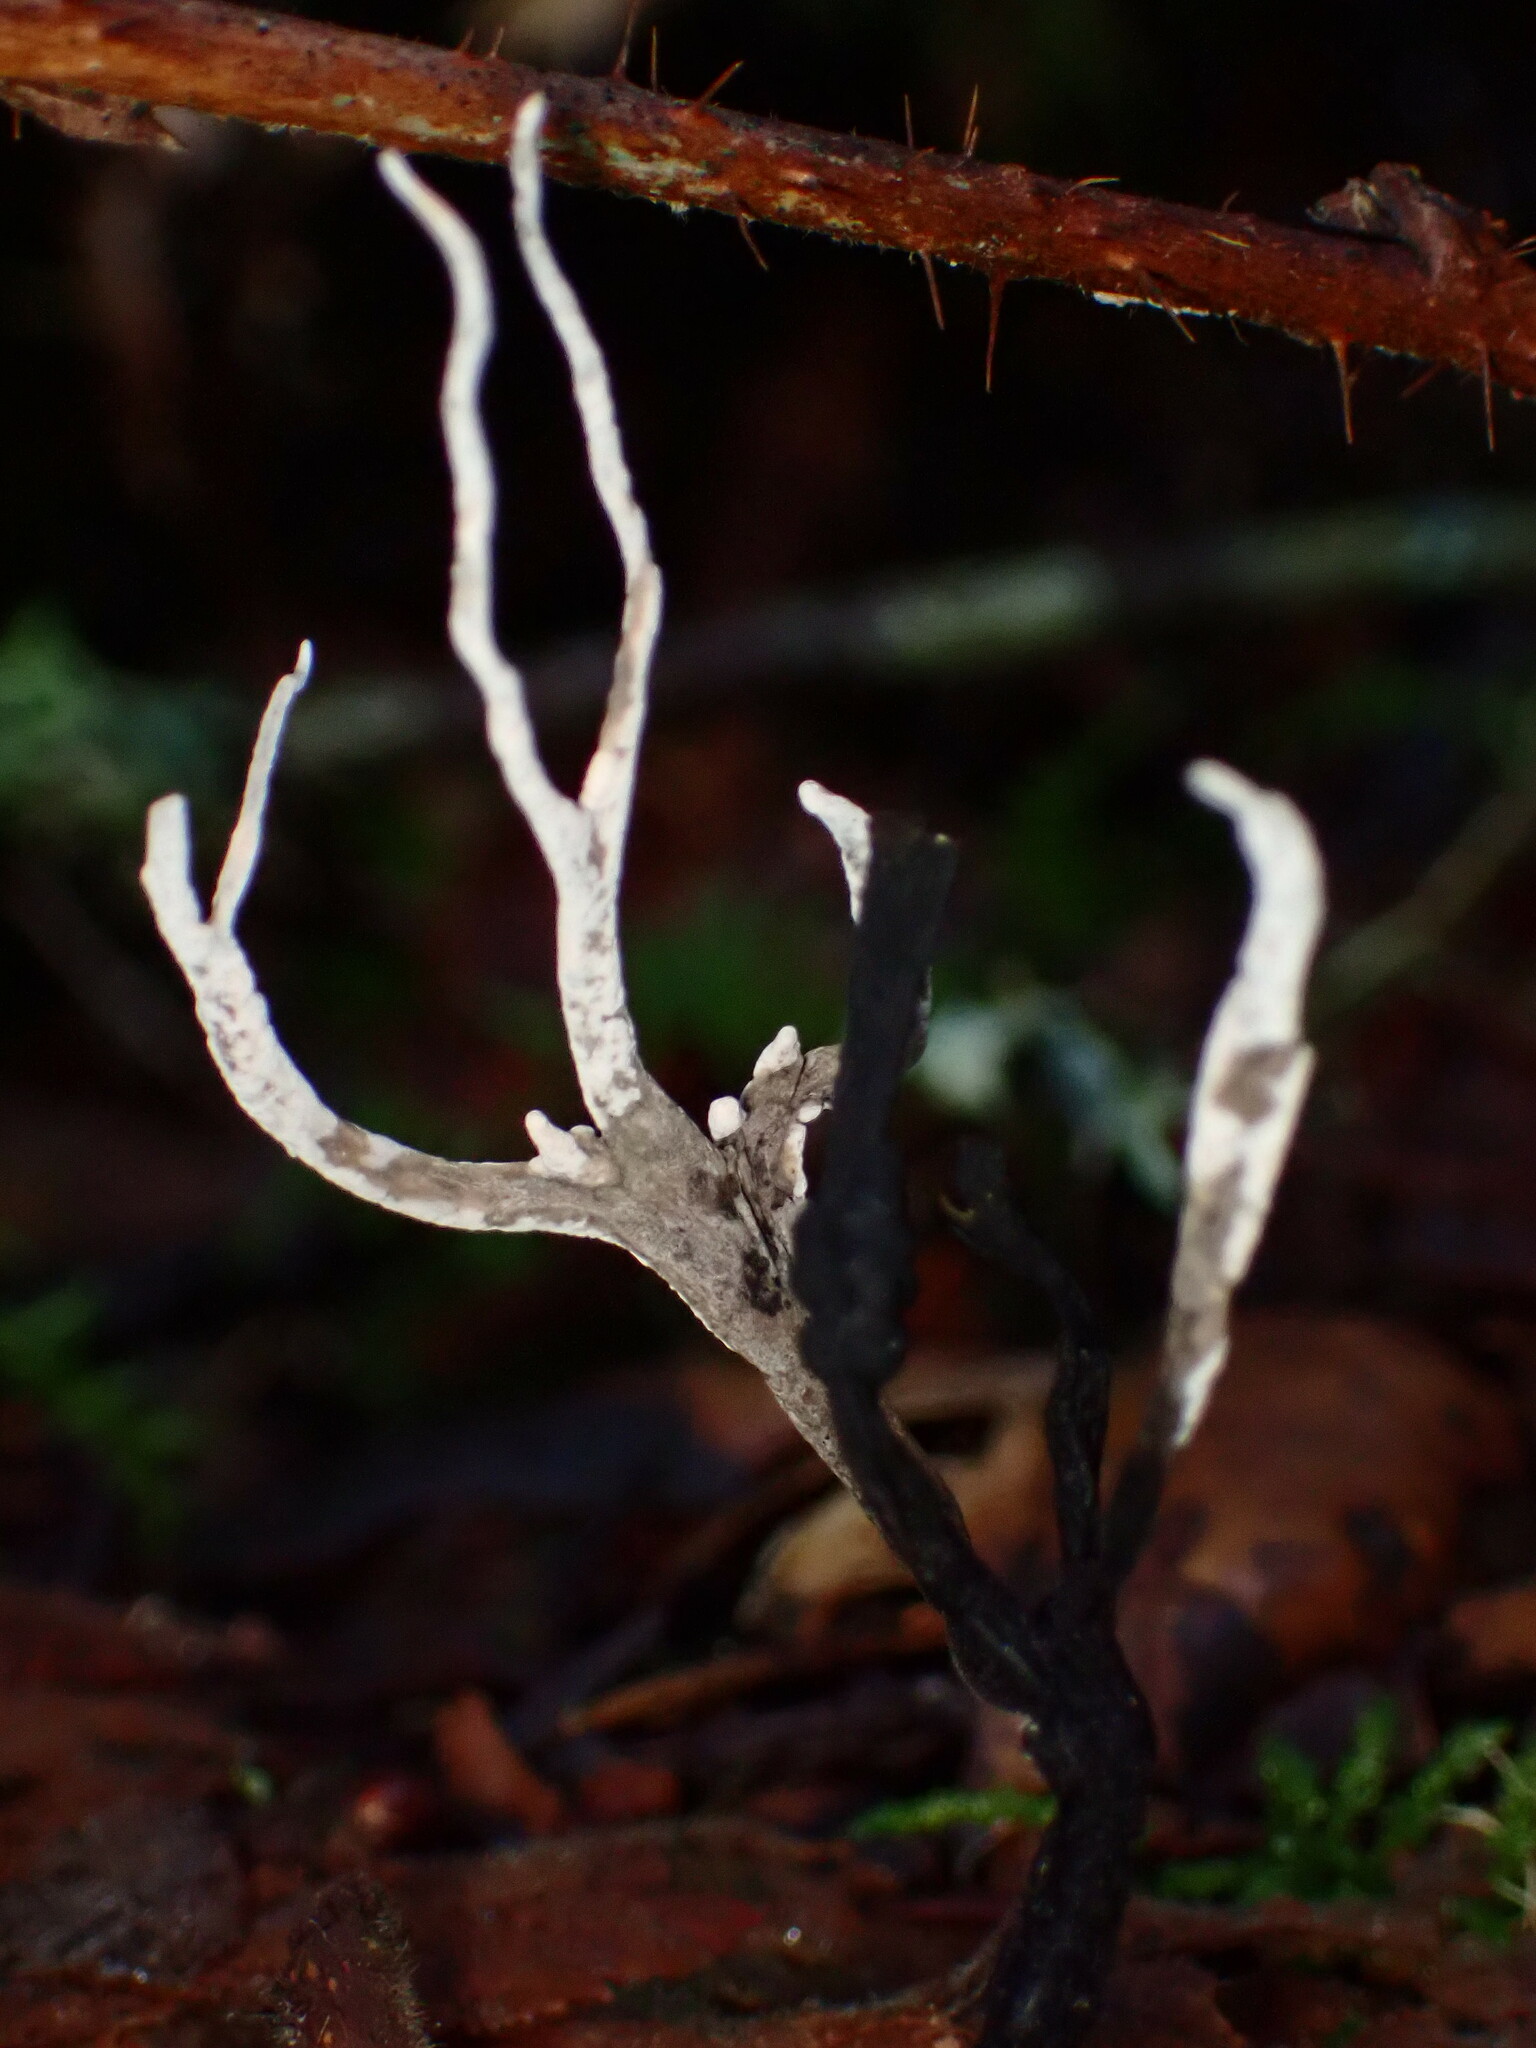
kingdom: Fungi
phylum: Ascomycota
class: Sordariomycetes
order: Xylariales
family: Xylariaceae
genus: Xylaria
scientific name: Xylaria hypoxylon
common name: Candle-snuff fungus
